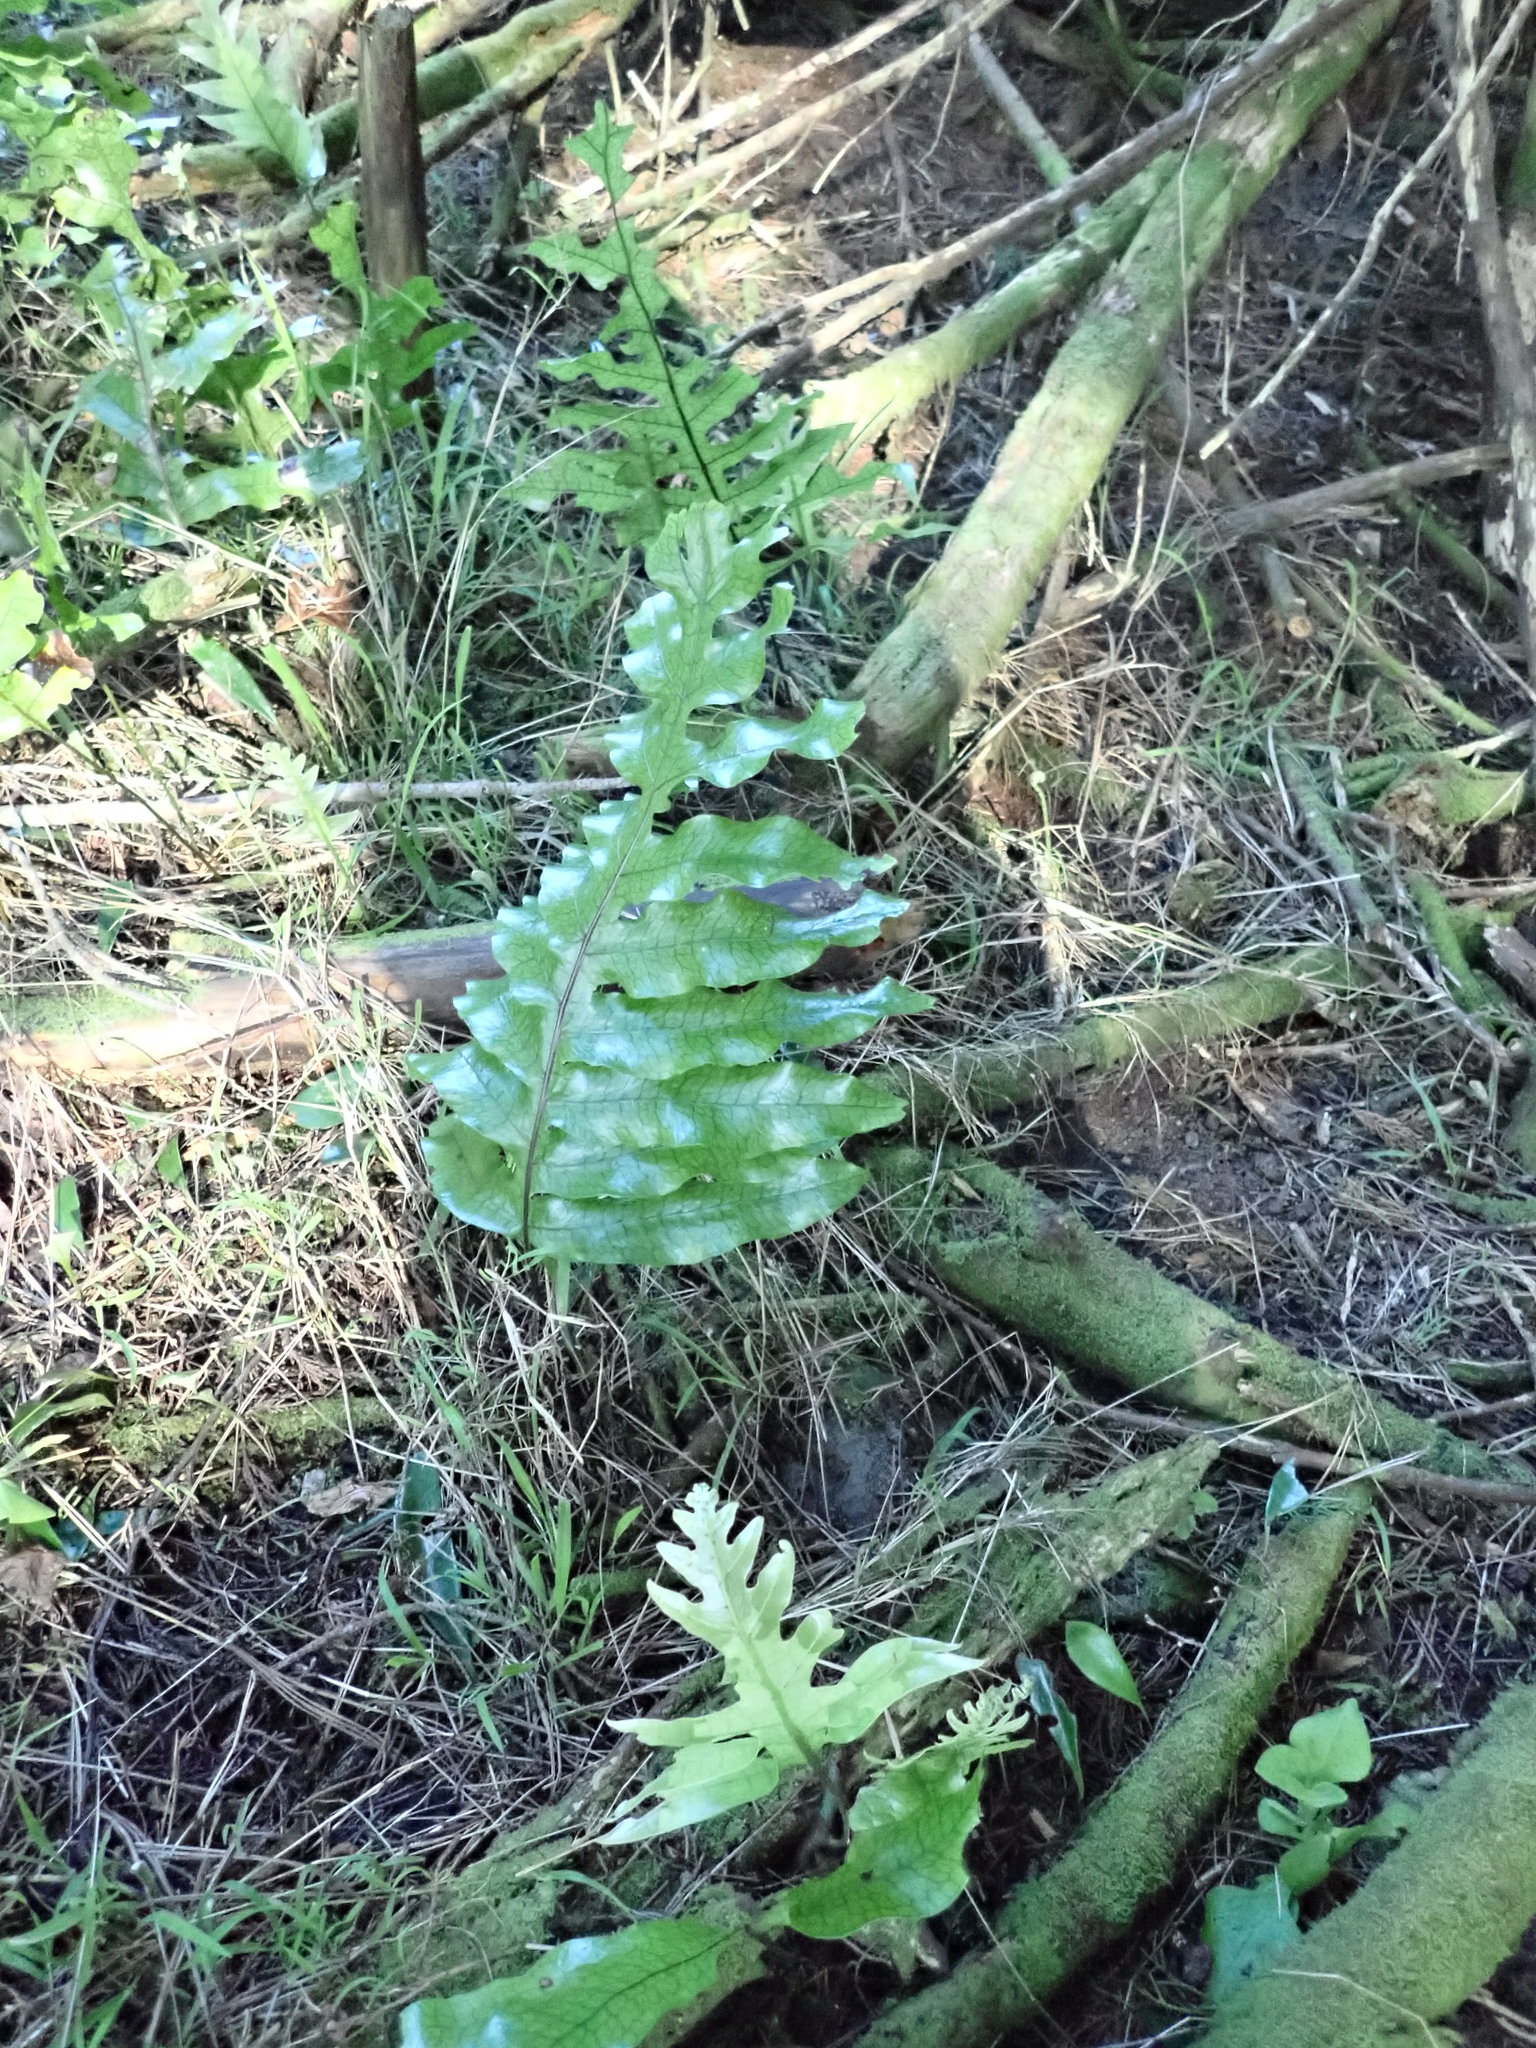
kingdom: Plantae
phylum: Tracheophyta
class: Polypodiopsida
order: Polypodiales
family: Polypodiaceae
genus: Lecanopteris
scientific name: Lecanopteris pustulata
